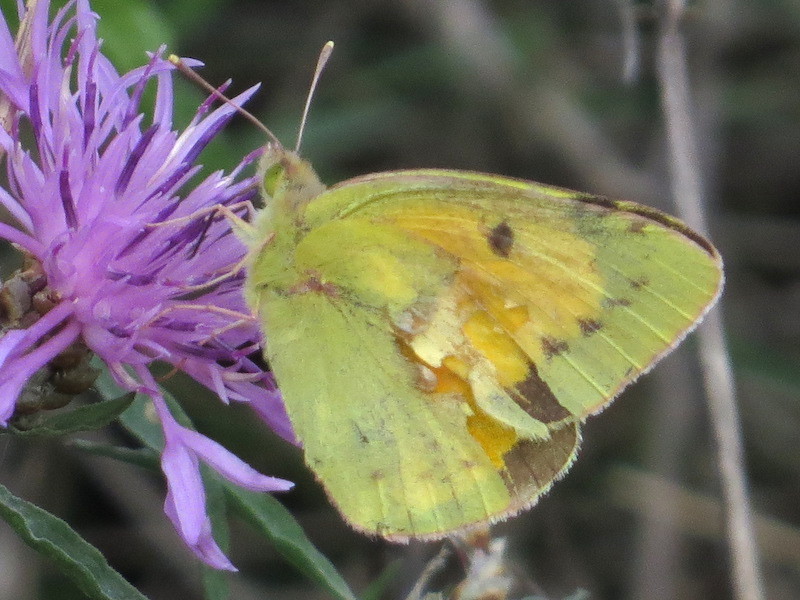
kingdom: Animalia
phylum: Arthropoda
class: Insecta
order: Lepidoptera
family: Pieridae
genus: Colias
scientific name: Colias croceus
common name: Clouded yellow
